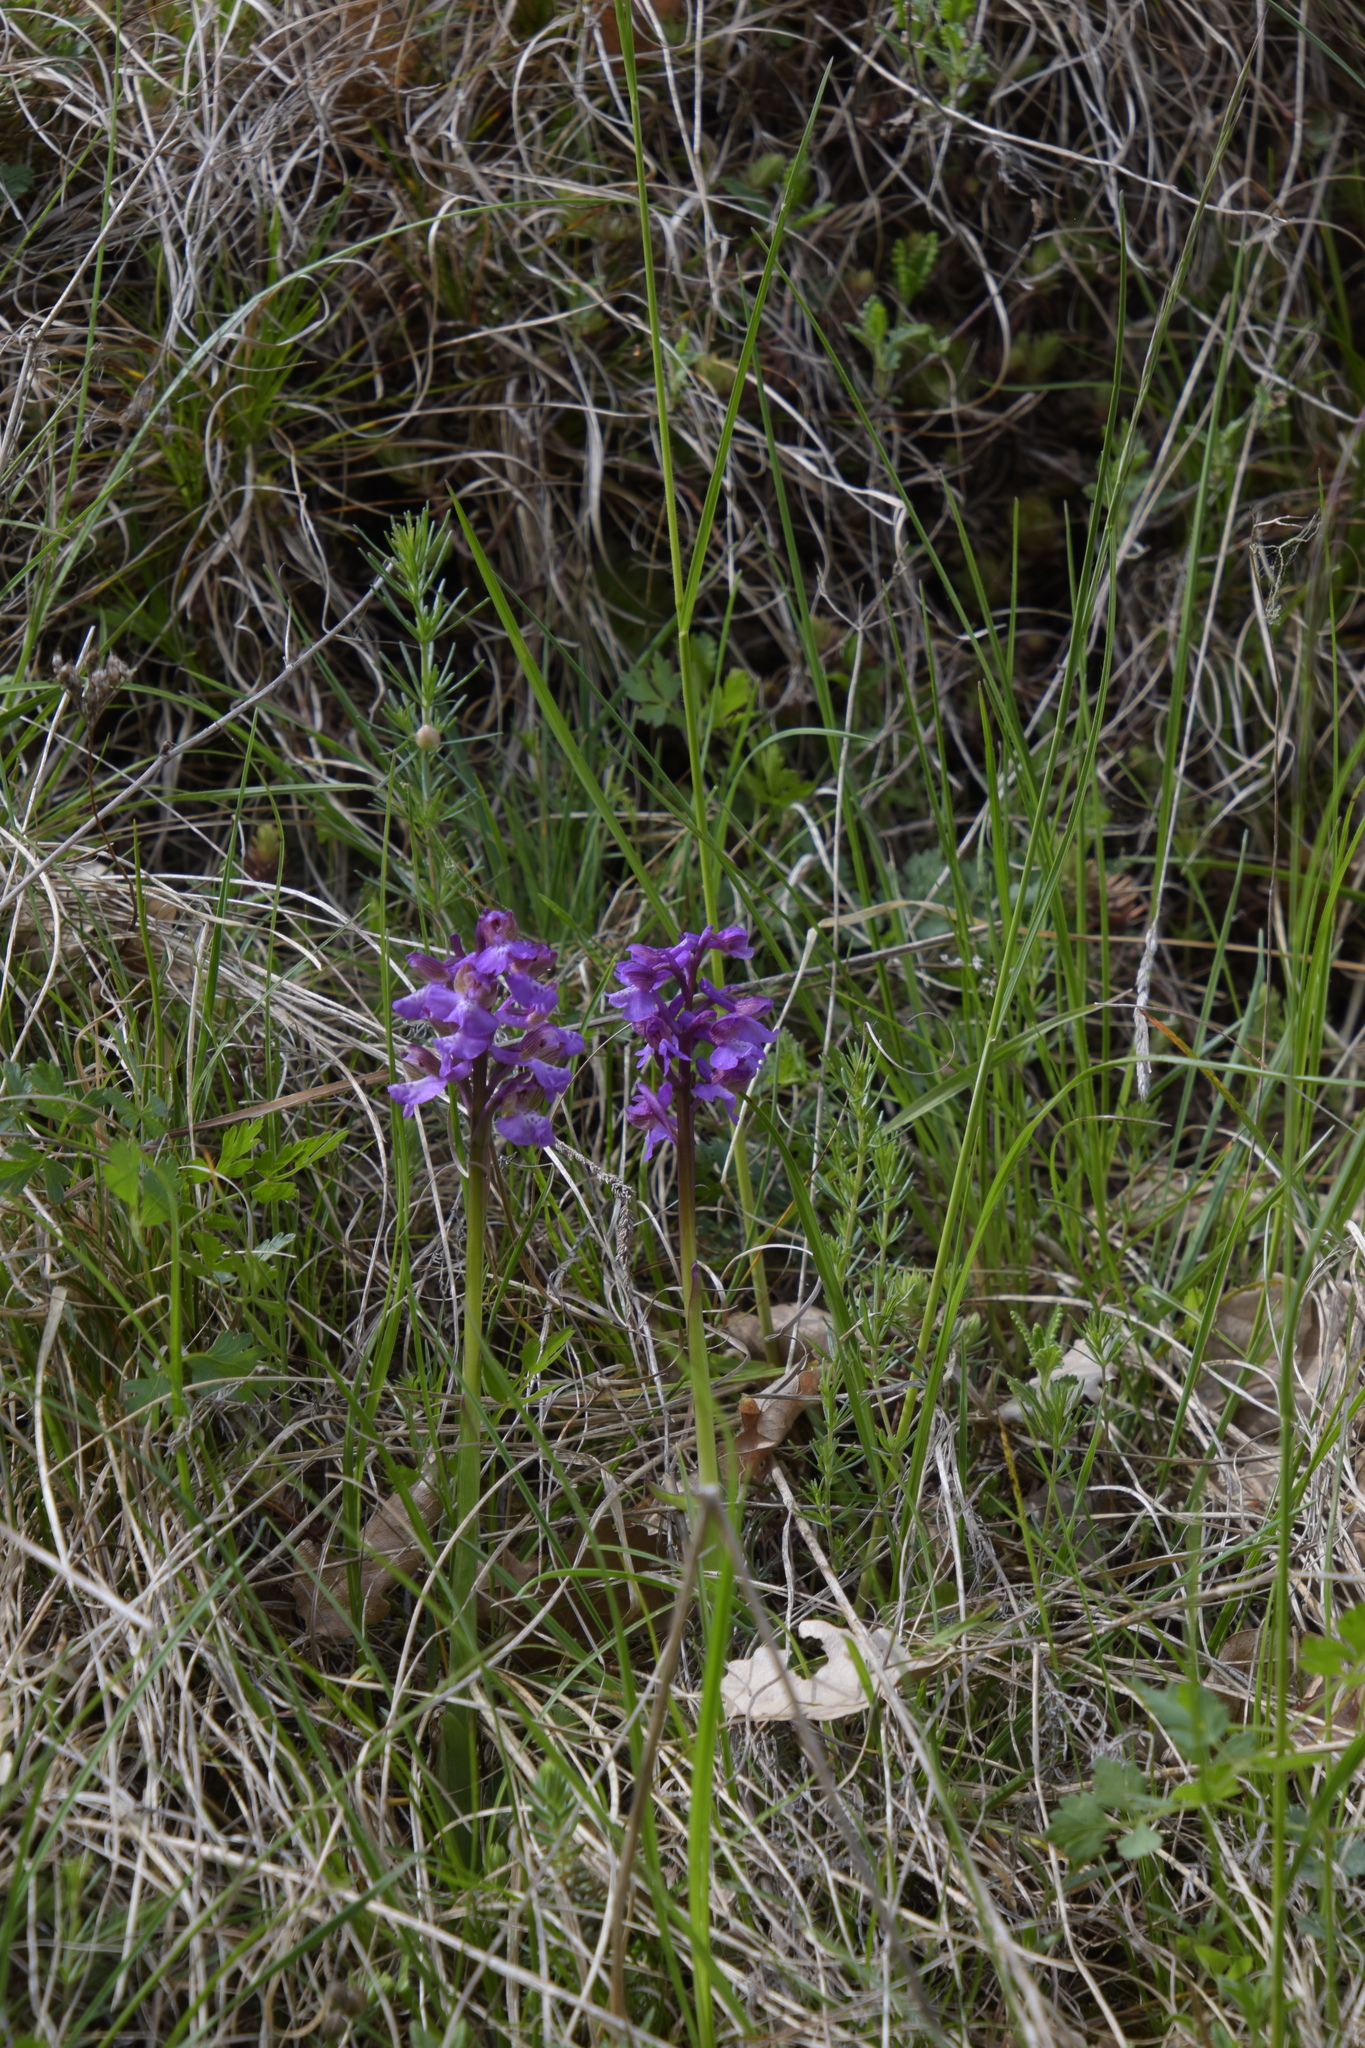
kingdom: Plantae
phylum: Tracheophyta
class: Liliopsida
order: Asparagales
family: Orchidaceae
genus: Anacamptis
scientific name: Anacamptis morio
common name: Green-winged orchid
